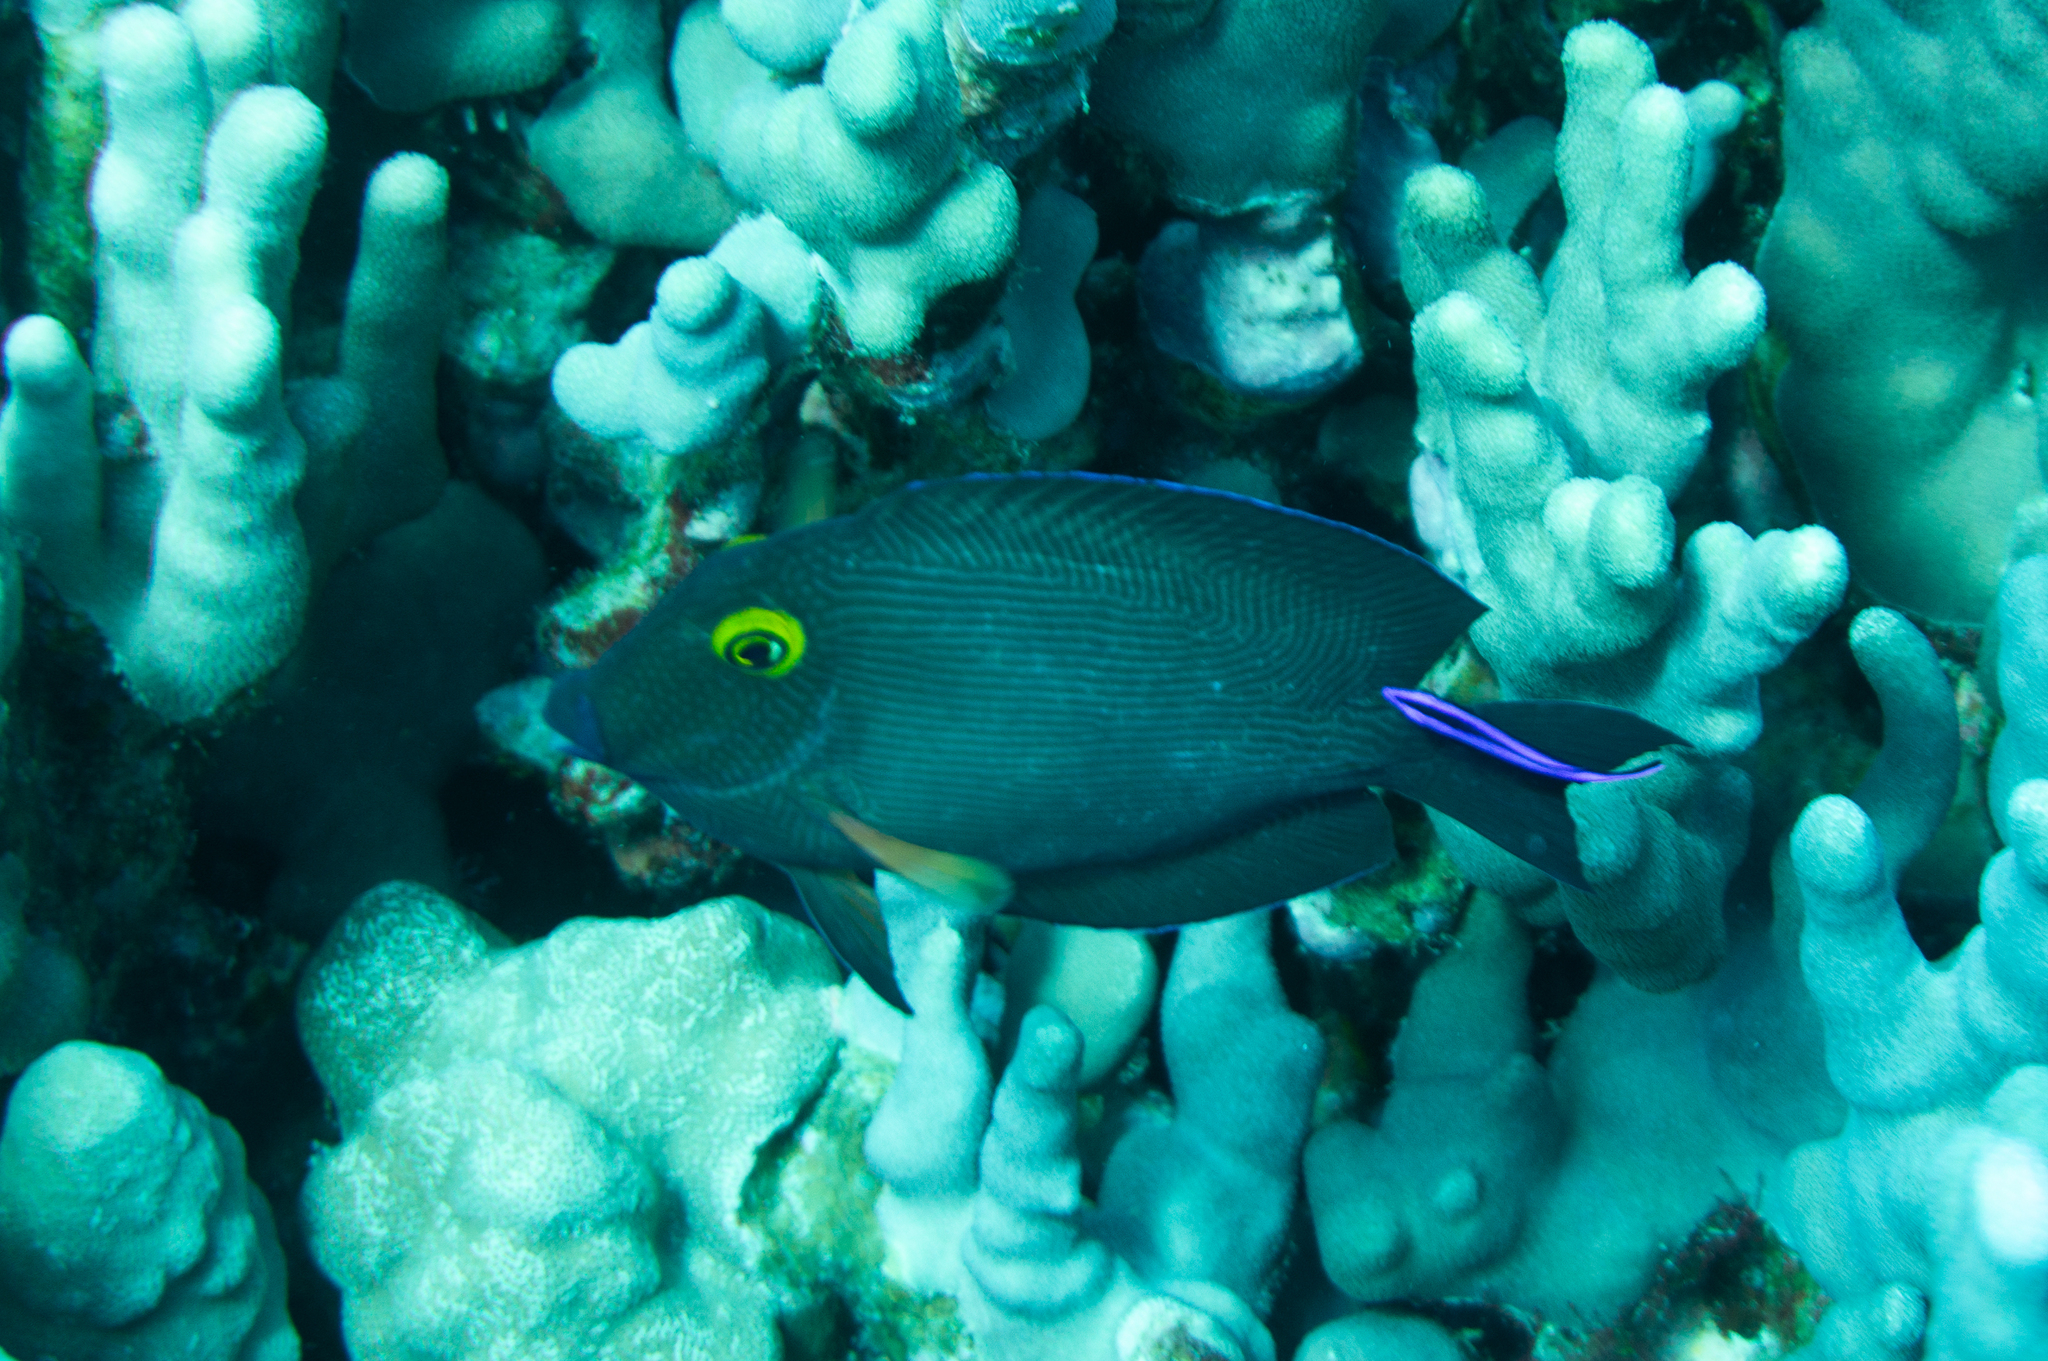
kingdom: Animalia
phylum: Chordata
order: Perciformes
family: Labridae
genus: Labroides
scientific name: Labroides phthirophagus
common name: Cleaner wrasse
